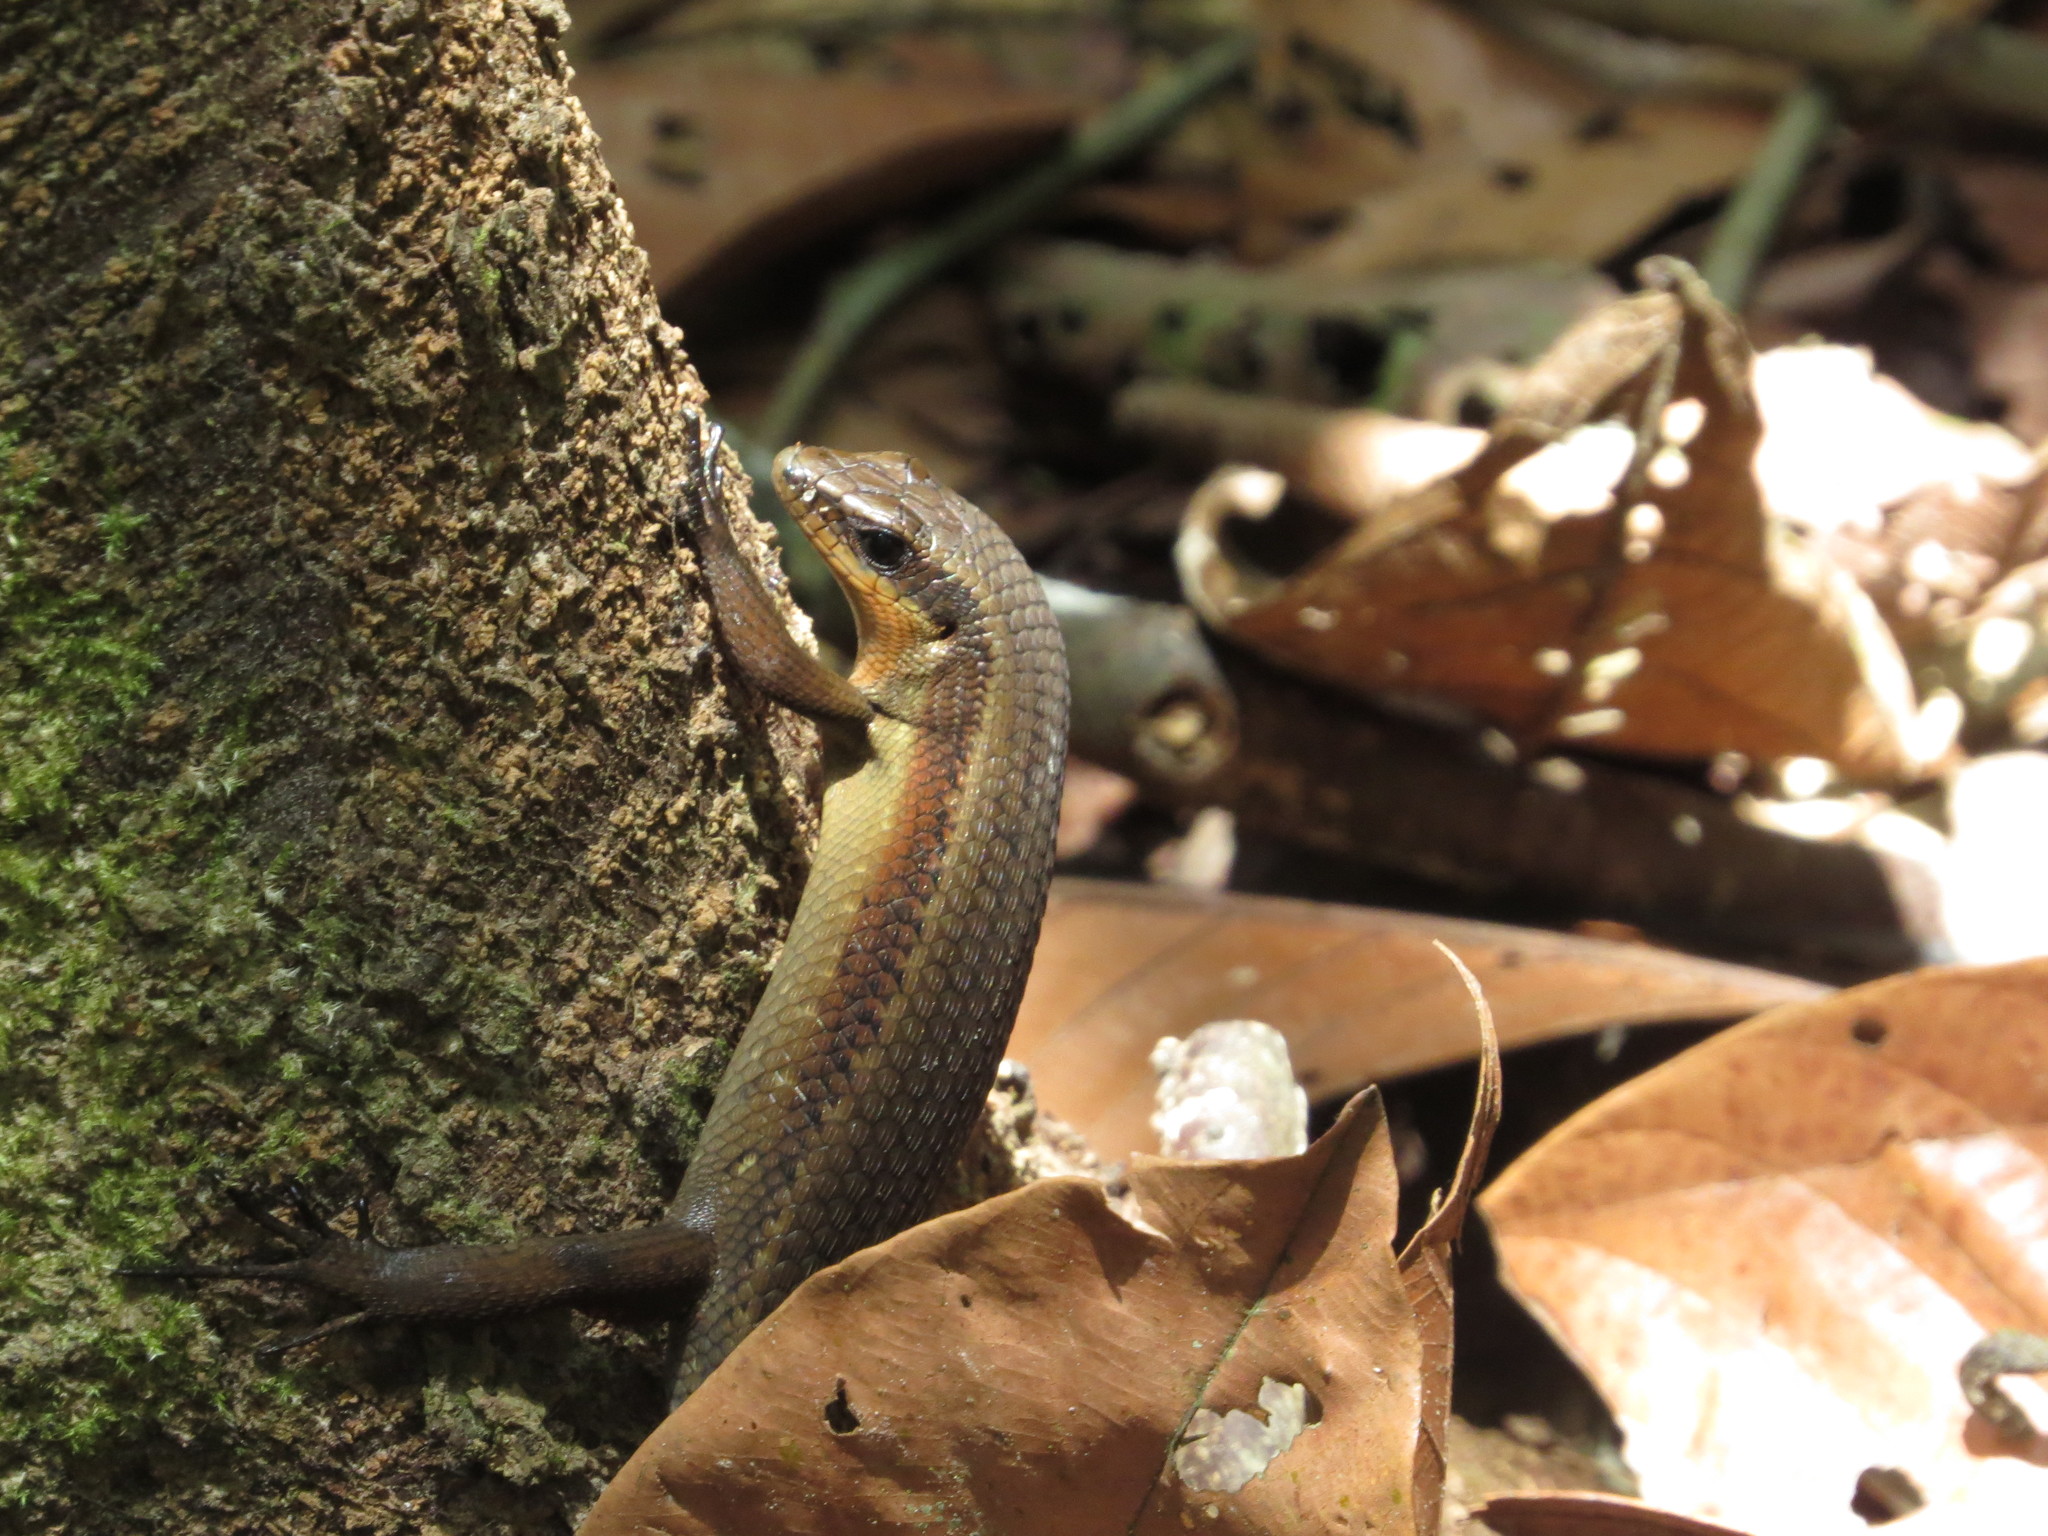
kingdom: Animalia
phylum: Chordata
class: Squamata
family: Scincidae
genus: Eutropis
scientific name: Eutropis rudis
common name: Rough mabuya
